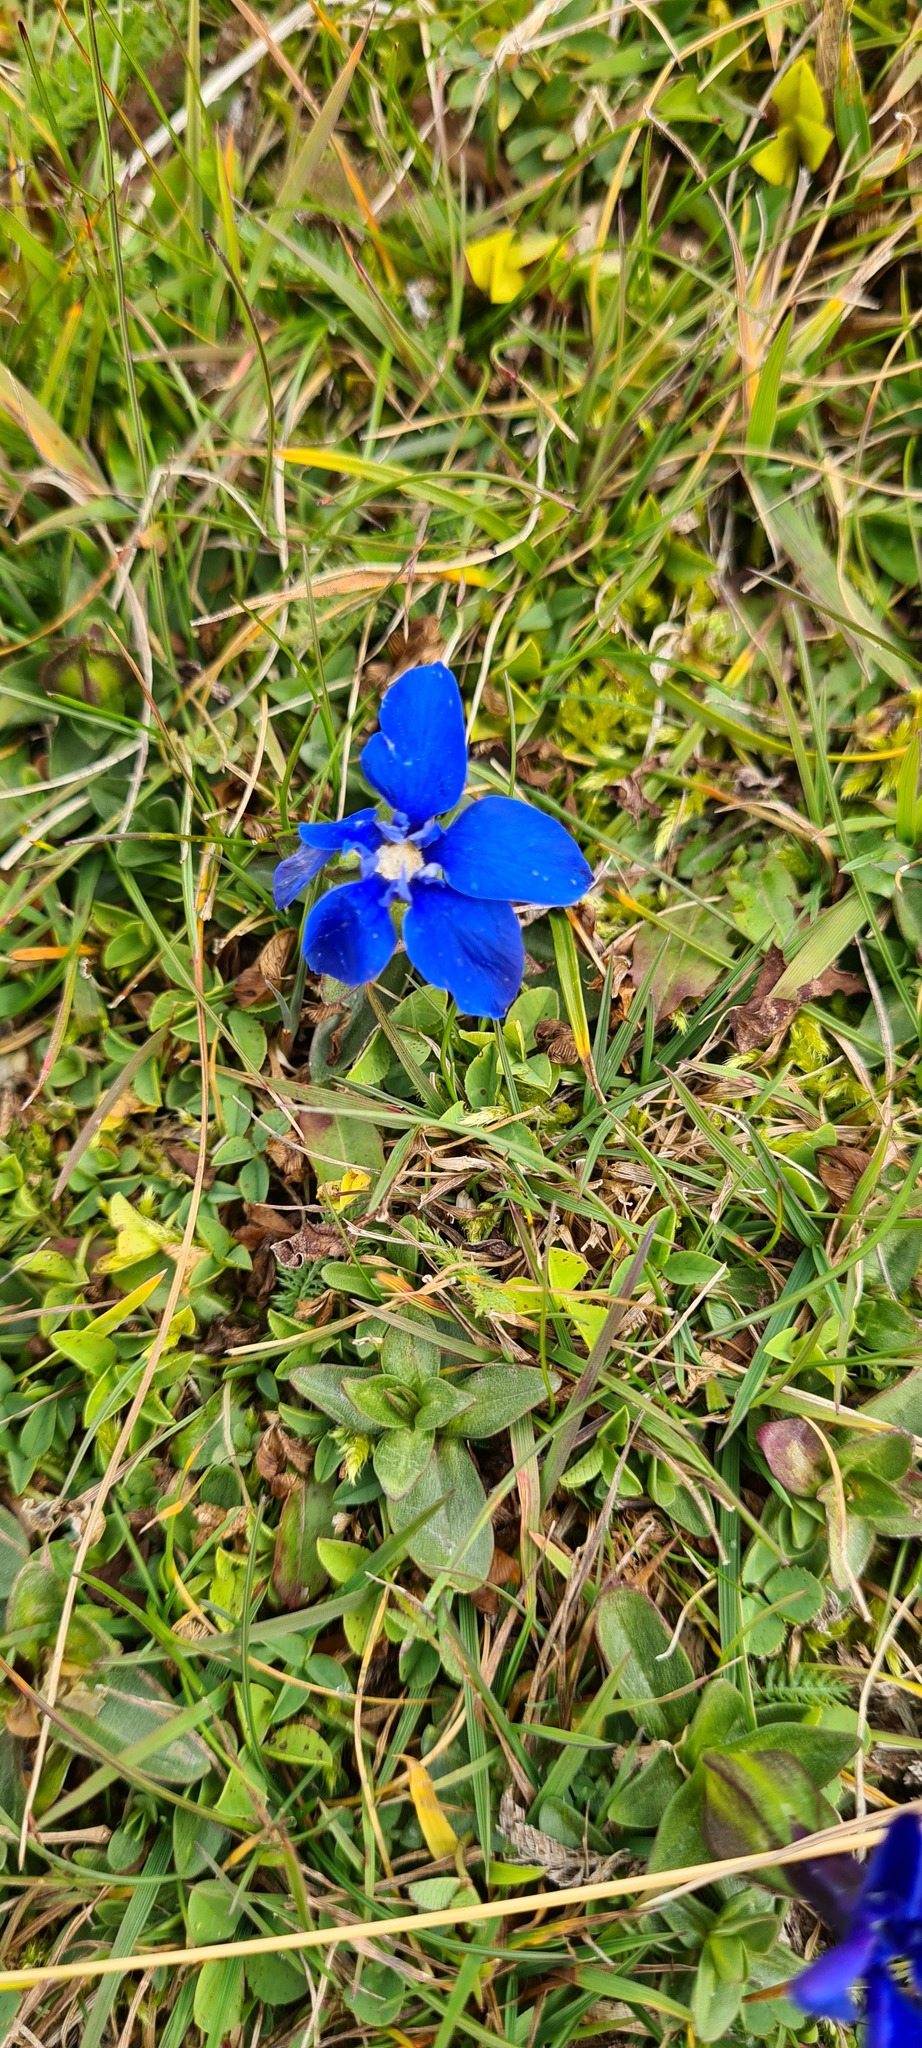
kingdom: Plantae
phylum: Tracheophyta
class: Magnoliopsida
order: Gentianales
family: Gentianaceae
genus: Gentiana
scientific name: Gentiana verna
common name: Spring gentian
